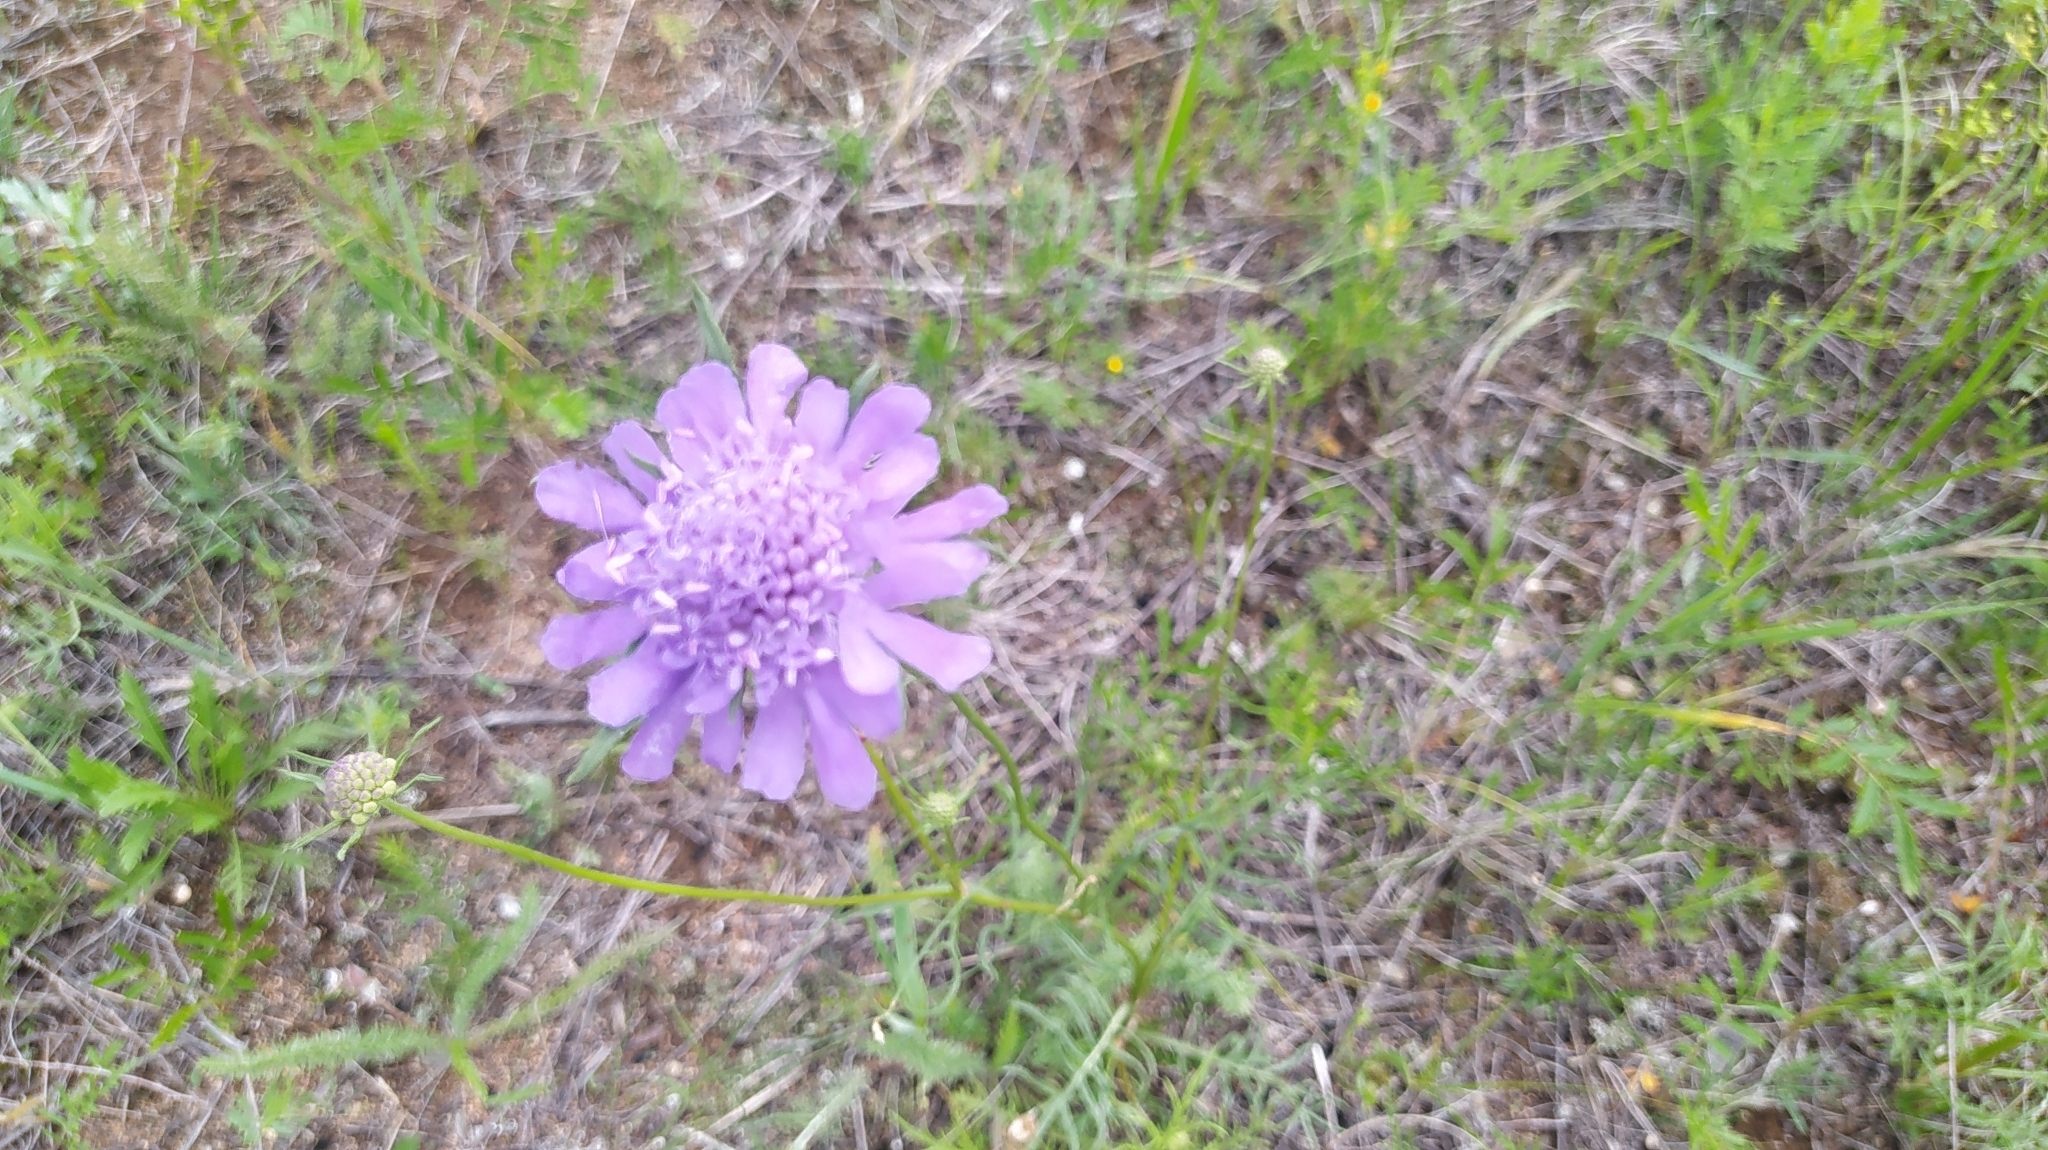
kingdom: Plantae
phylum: Tracheophyta
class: Magnoliopsida
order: Dipsacales
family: Caprifoliaceae
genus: Scabiosa
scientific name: Scabiosa comosa
